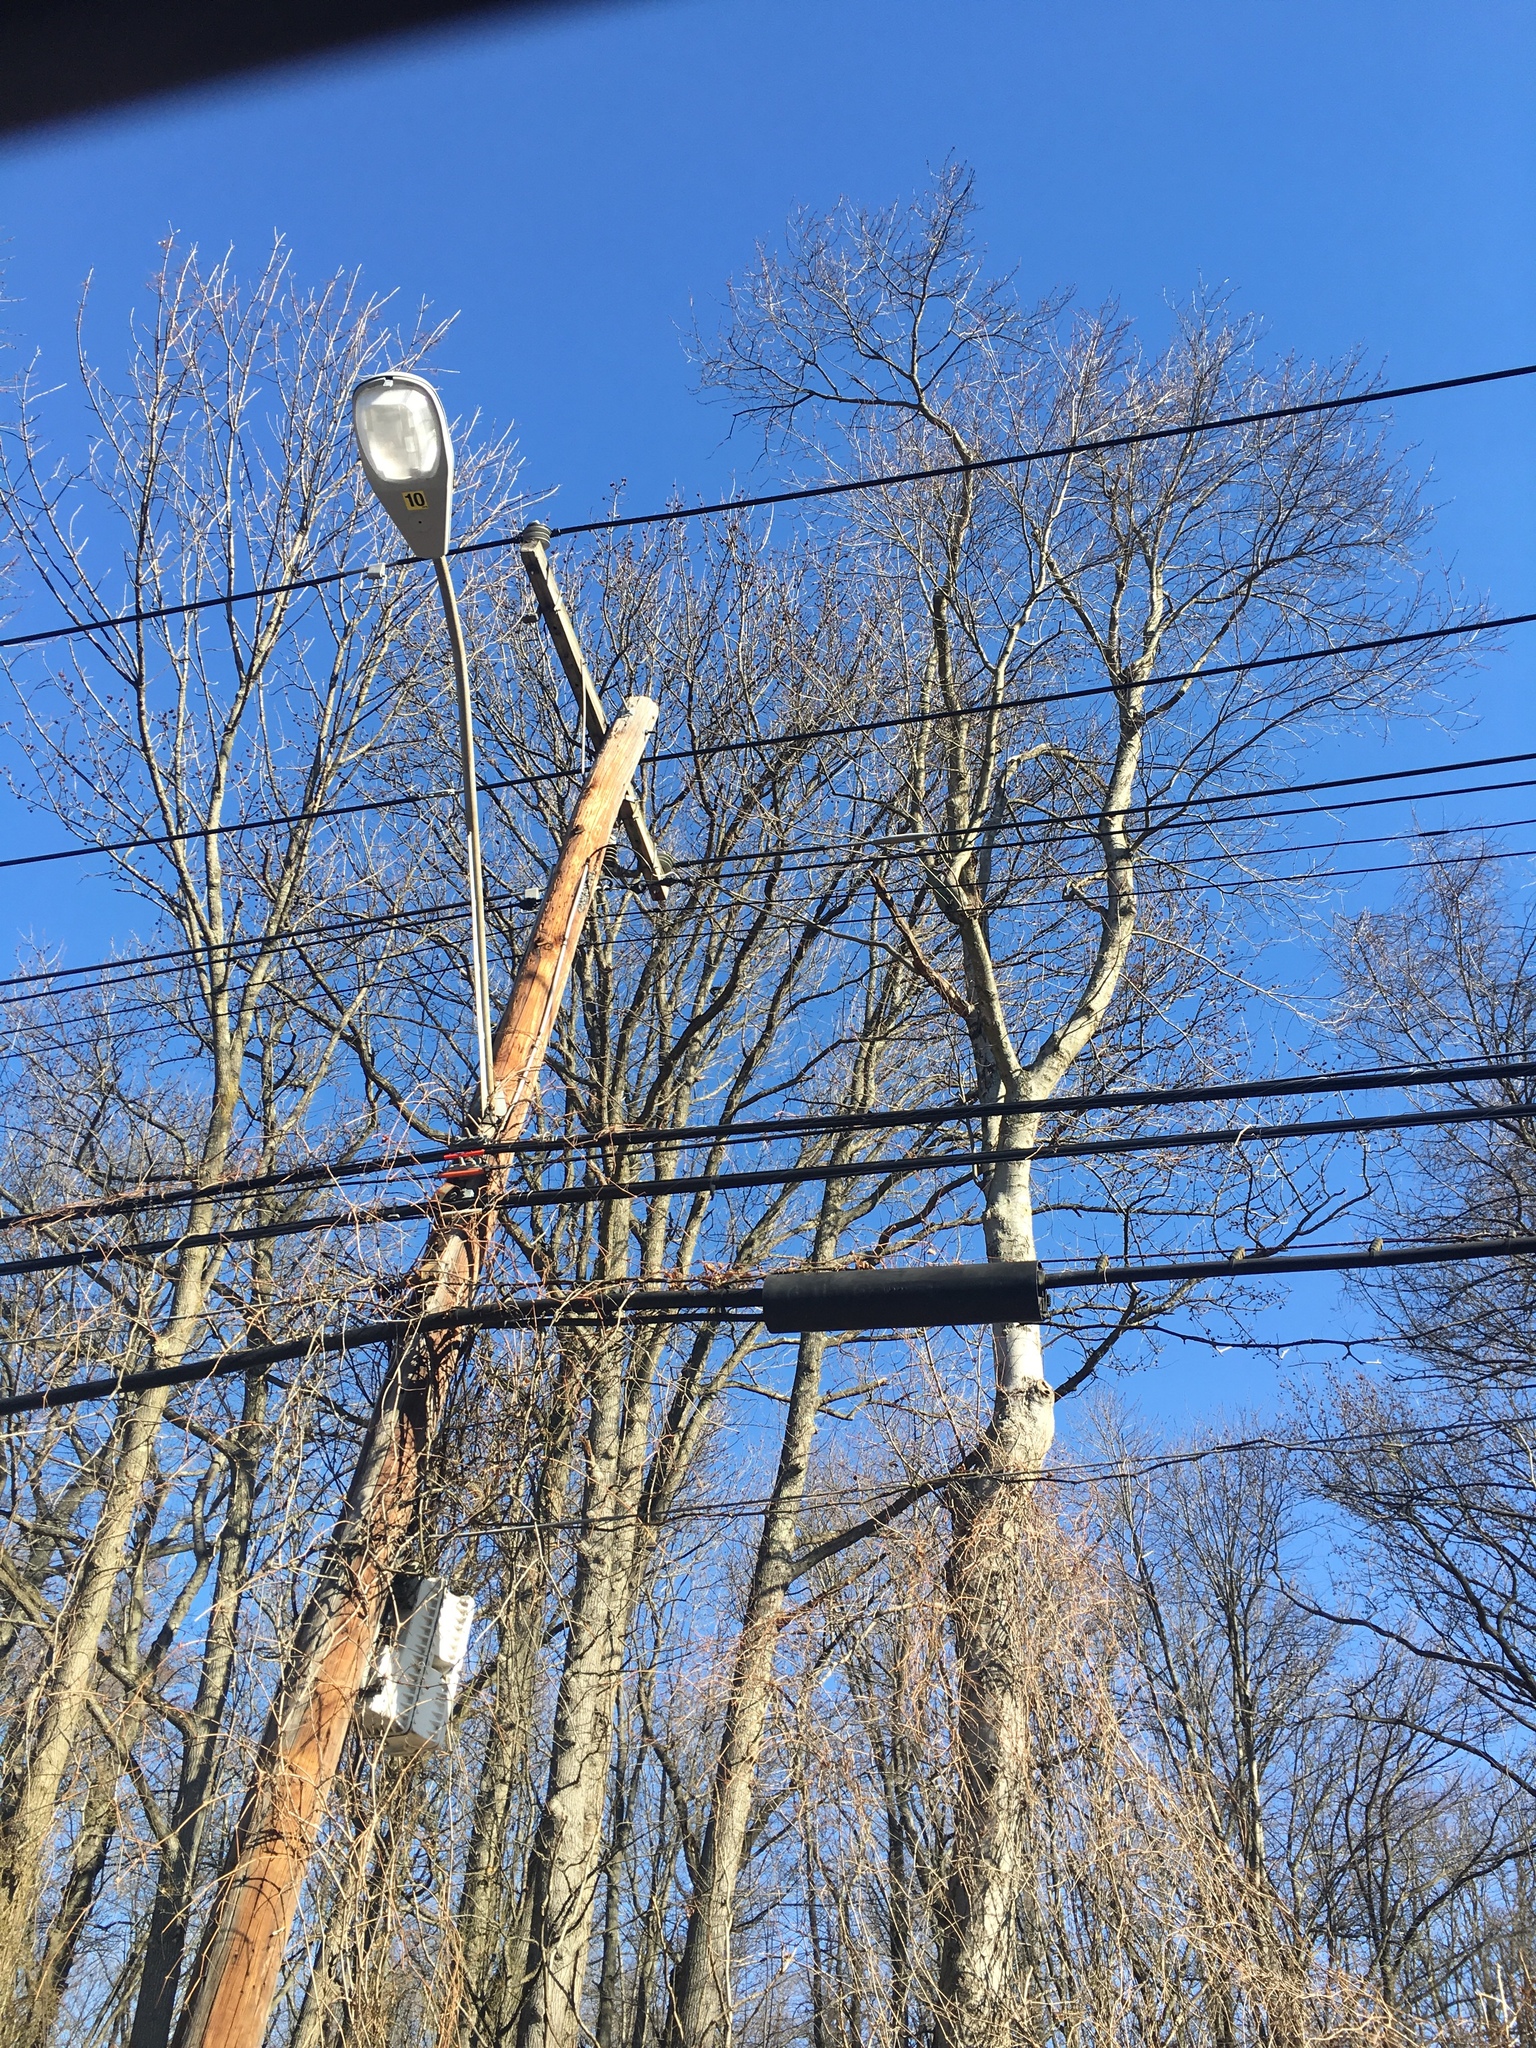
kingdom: Plantae
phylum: Tracheophyta
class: Magnoliopsida
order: Saxifragales
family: Altingiaceae
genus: Liquidambar
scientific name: Liquidambar styraciflua
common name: Sweet gum
